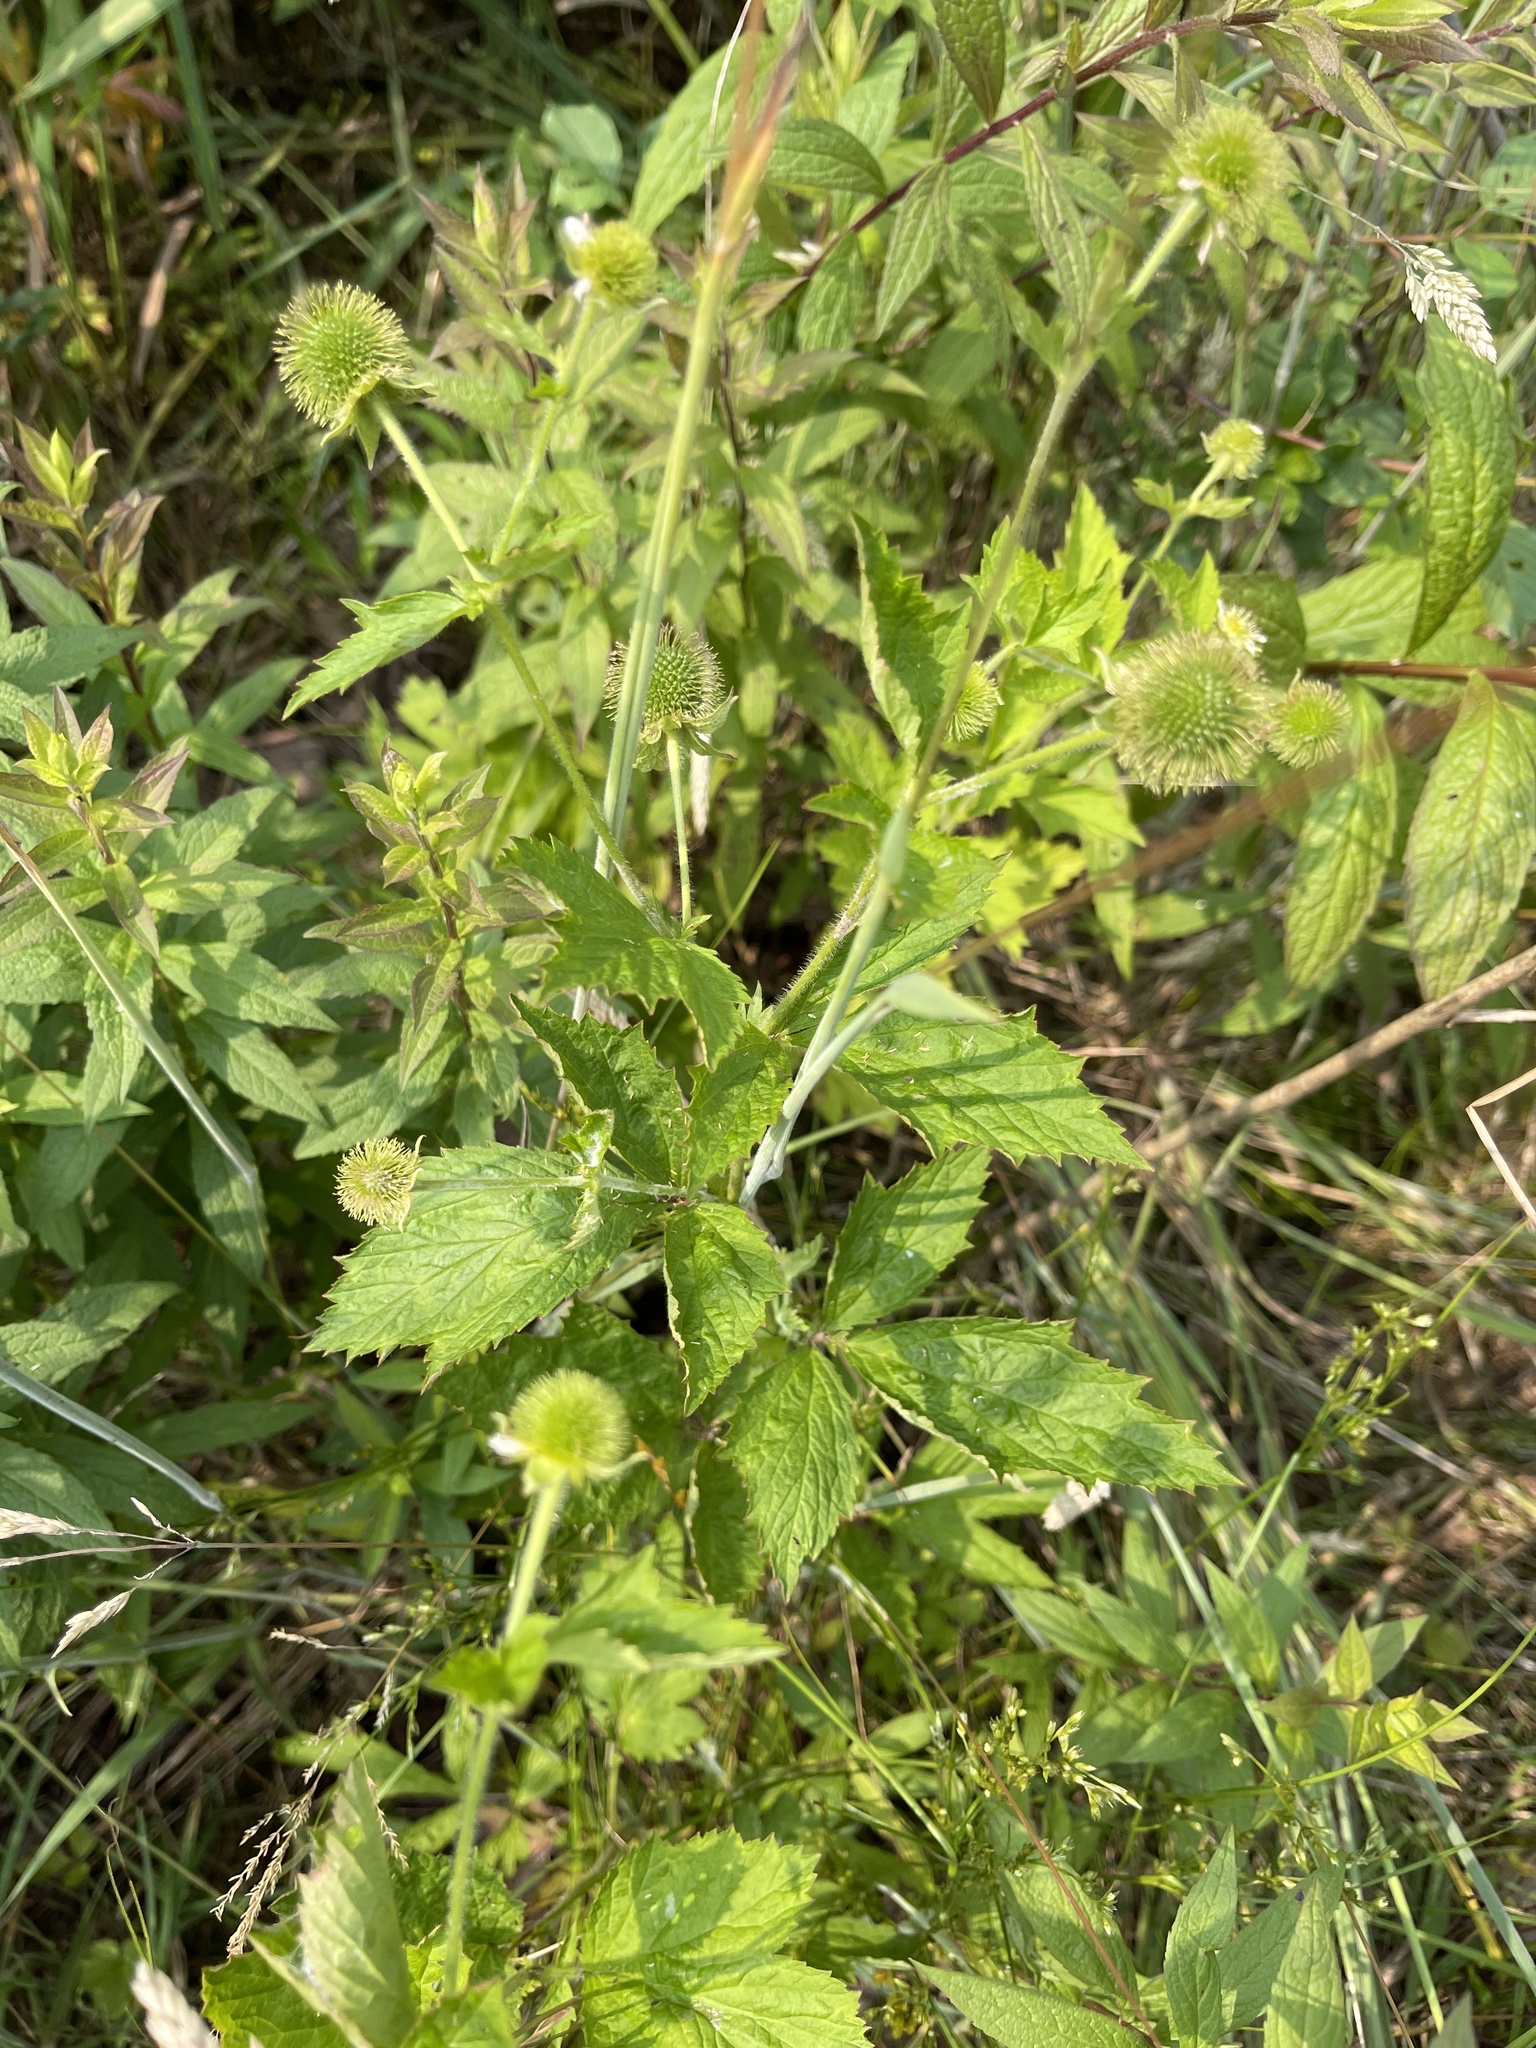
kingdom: Plantae
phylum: Tracheophyta
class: Magnoliopsida
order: Rosales
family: Rosaceae
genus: Geum
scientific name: Geum laciniatum
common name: Rough avens
